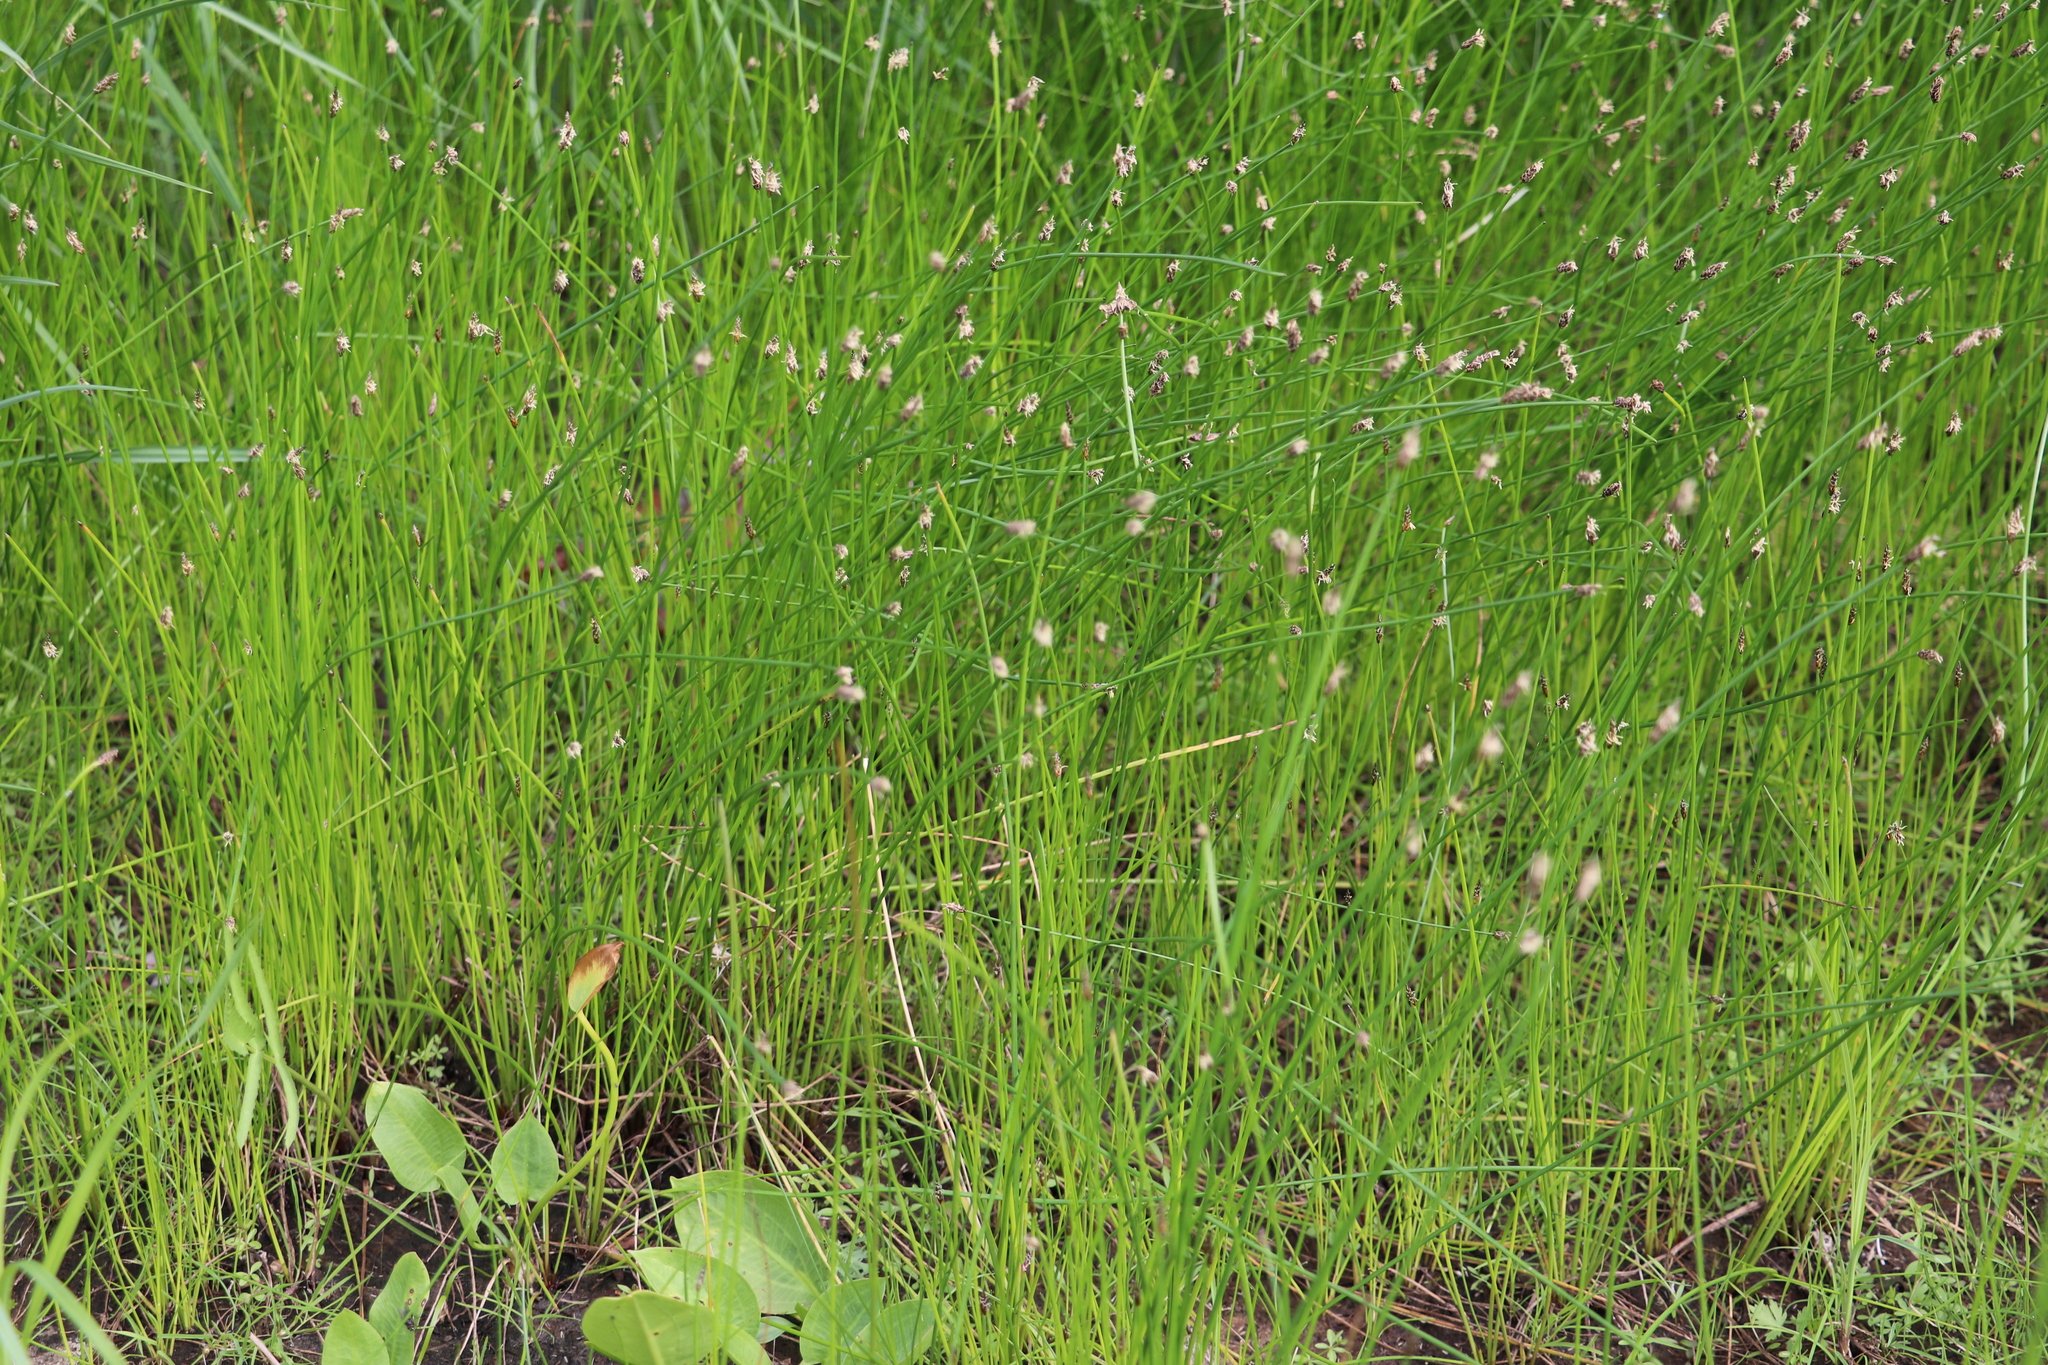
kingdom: Plantae
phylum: Tracheophyta
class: Liliopsida
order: Poales
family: Cyperaceae
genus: Eleocharis
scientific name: Eleocharis palustris
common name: Common spike-rush
